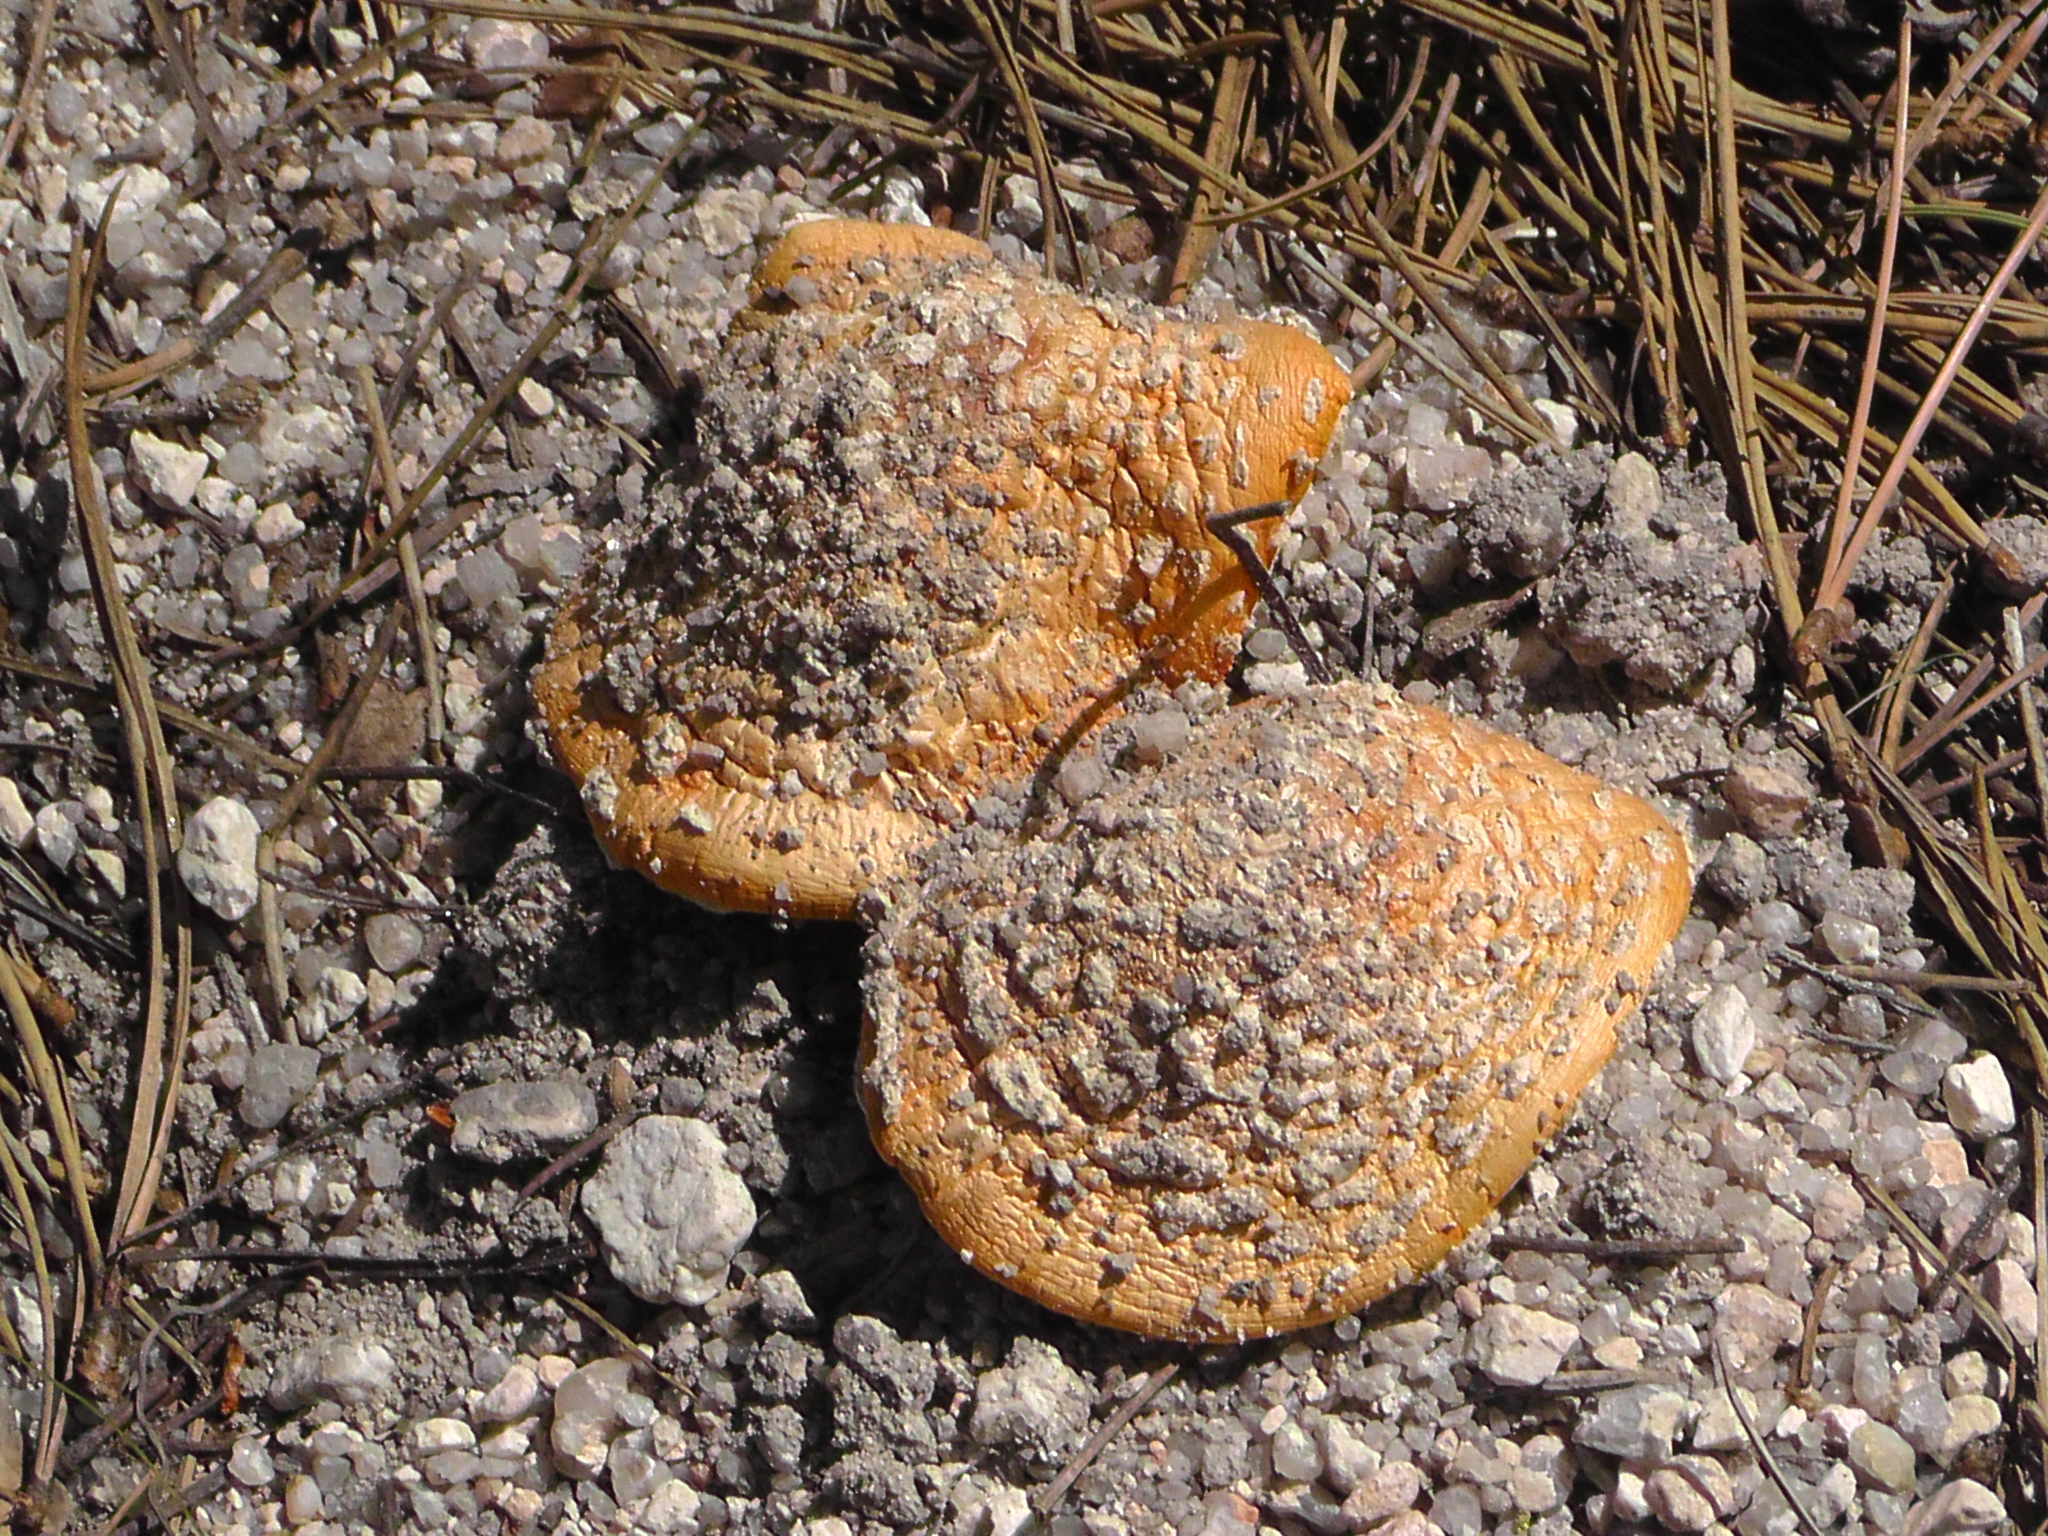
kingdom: Fungi
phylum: Basidiomycota
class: Agaricomycetes
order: Agaricales
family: Amanitaceae
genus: Amanita
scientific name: Amanita muscaria
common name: Fly agaric
